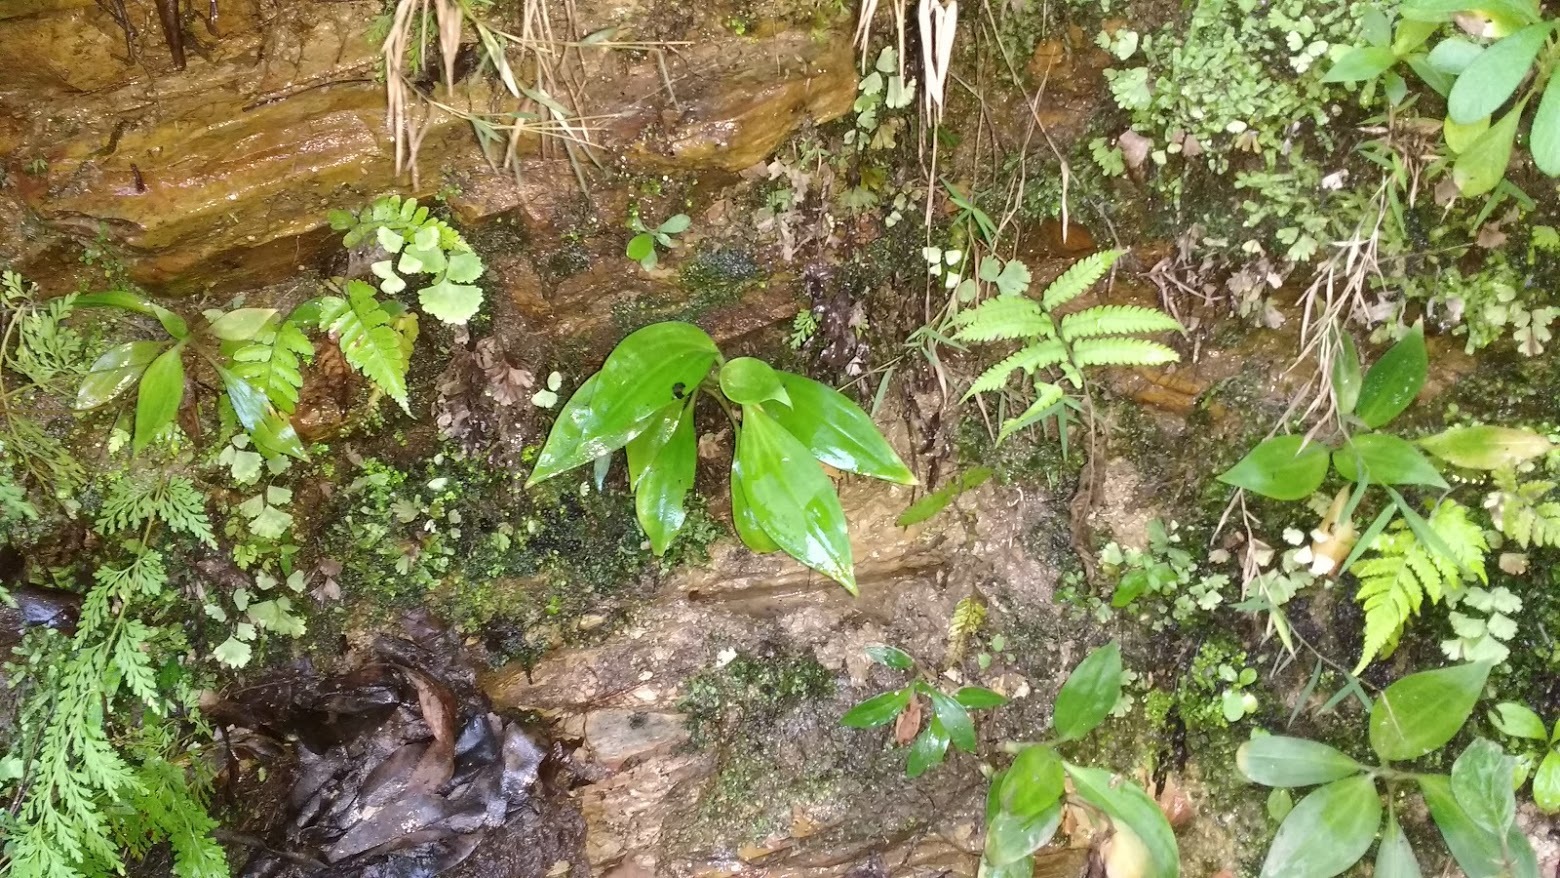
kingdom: Plantae
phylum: Tracheophyta
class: Liliopsida
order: Asparagales
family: Orchidaceae
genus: Goodyera
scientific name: Goodyera procera
